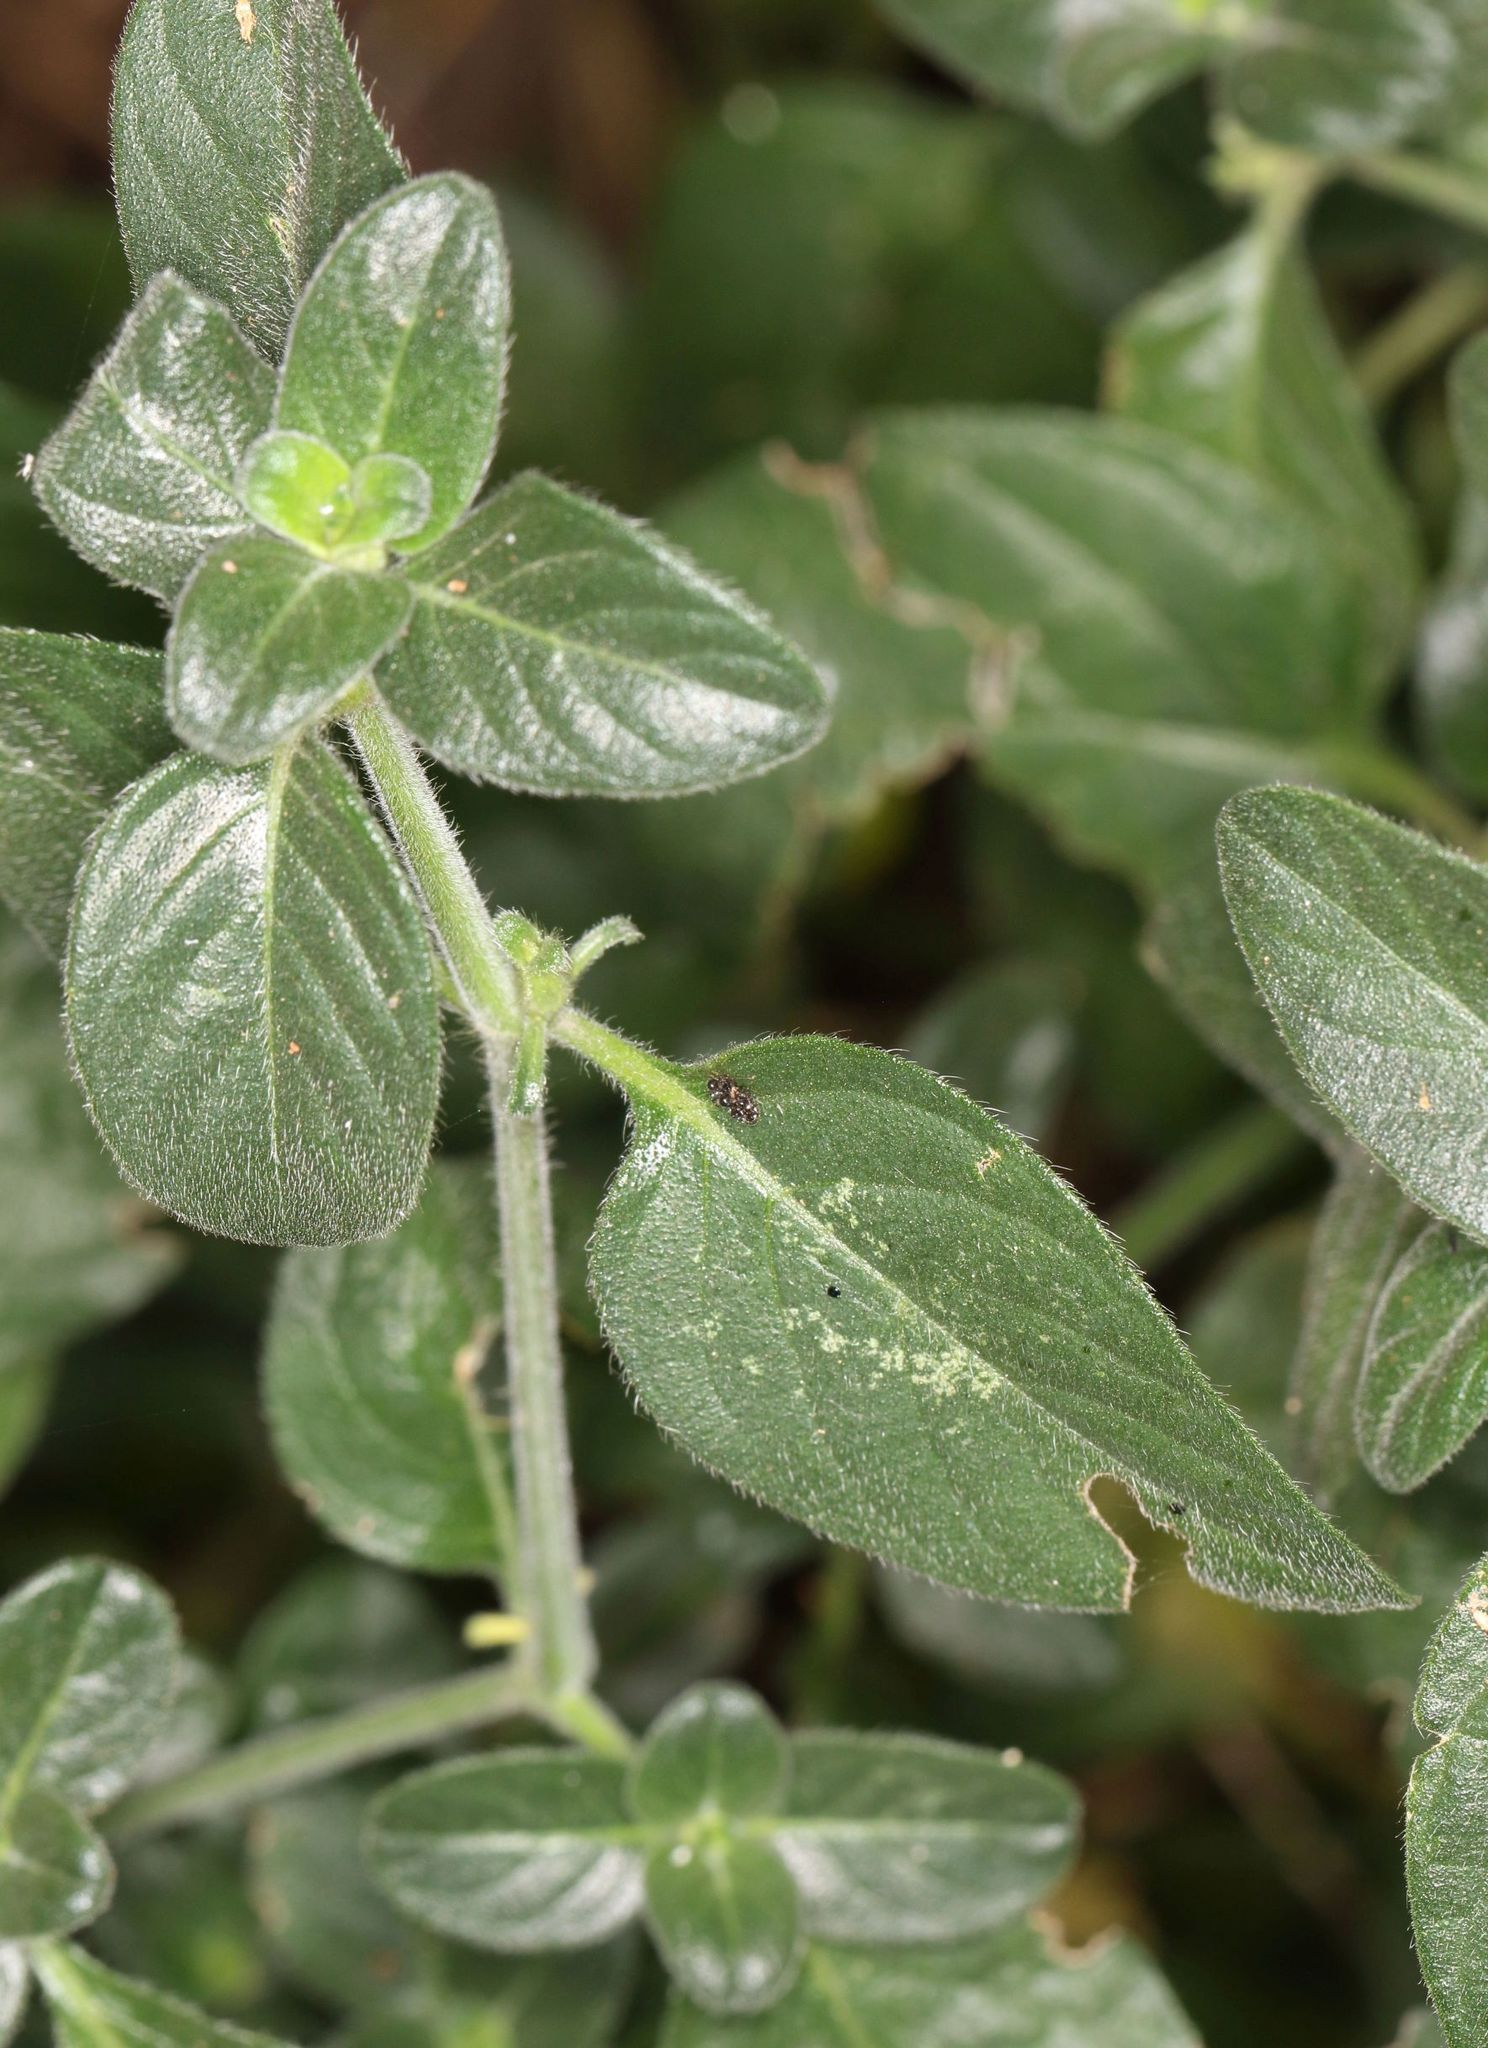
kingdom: Plantae
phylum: Tracheophyta
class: Magnoliopsida
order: Lamiales
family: Acanthaceae
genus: Barleria
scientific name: Barleria obtusa
